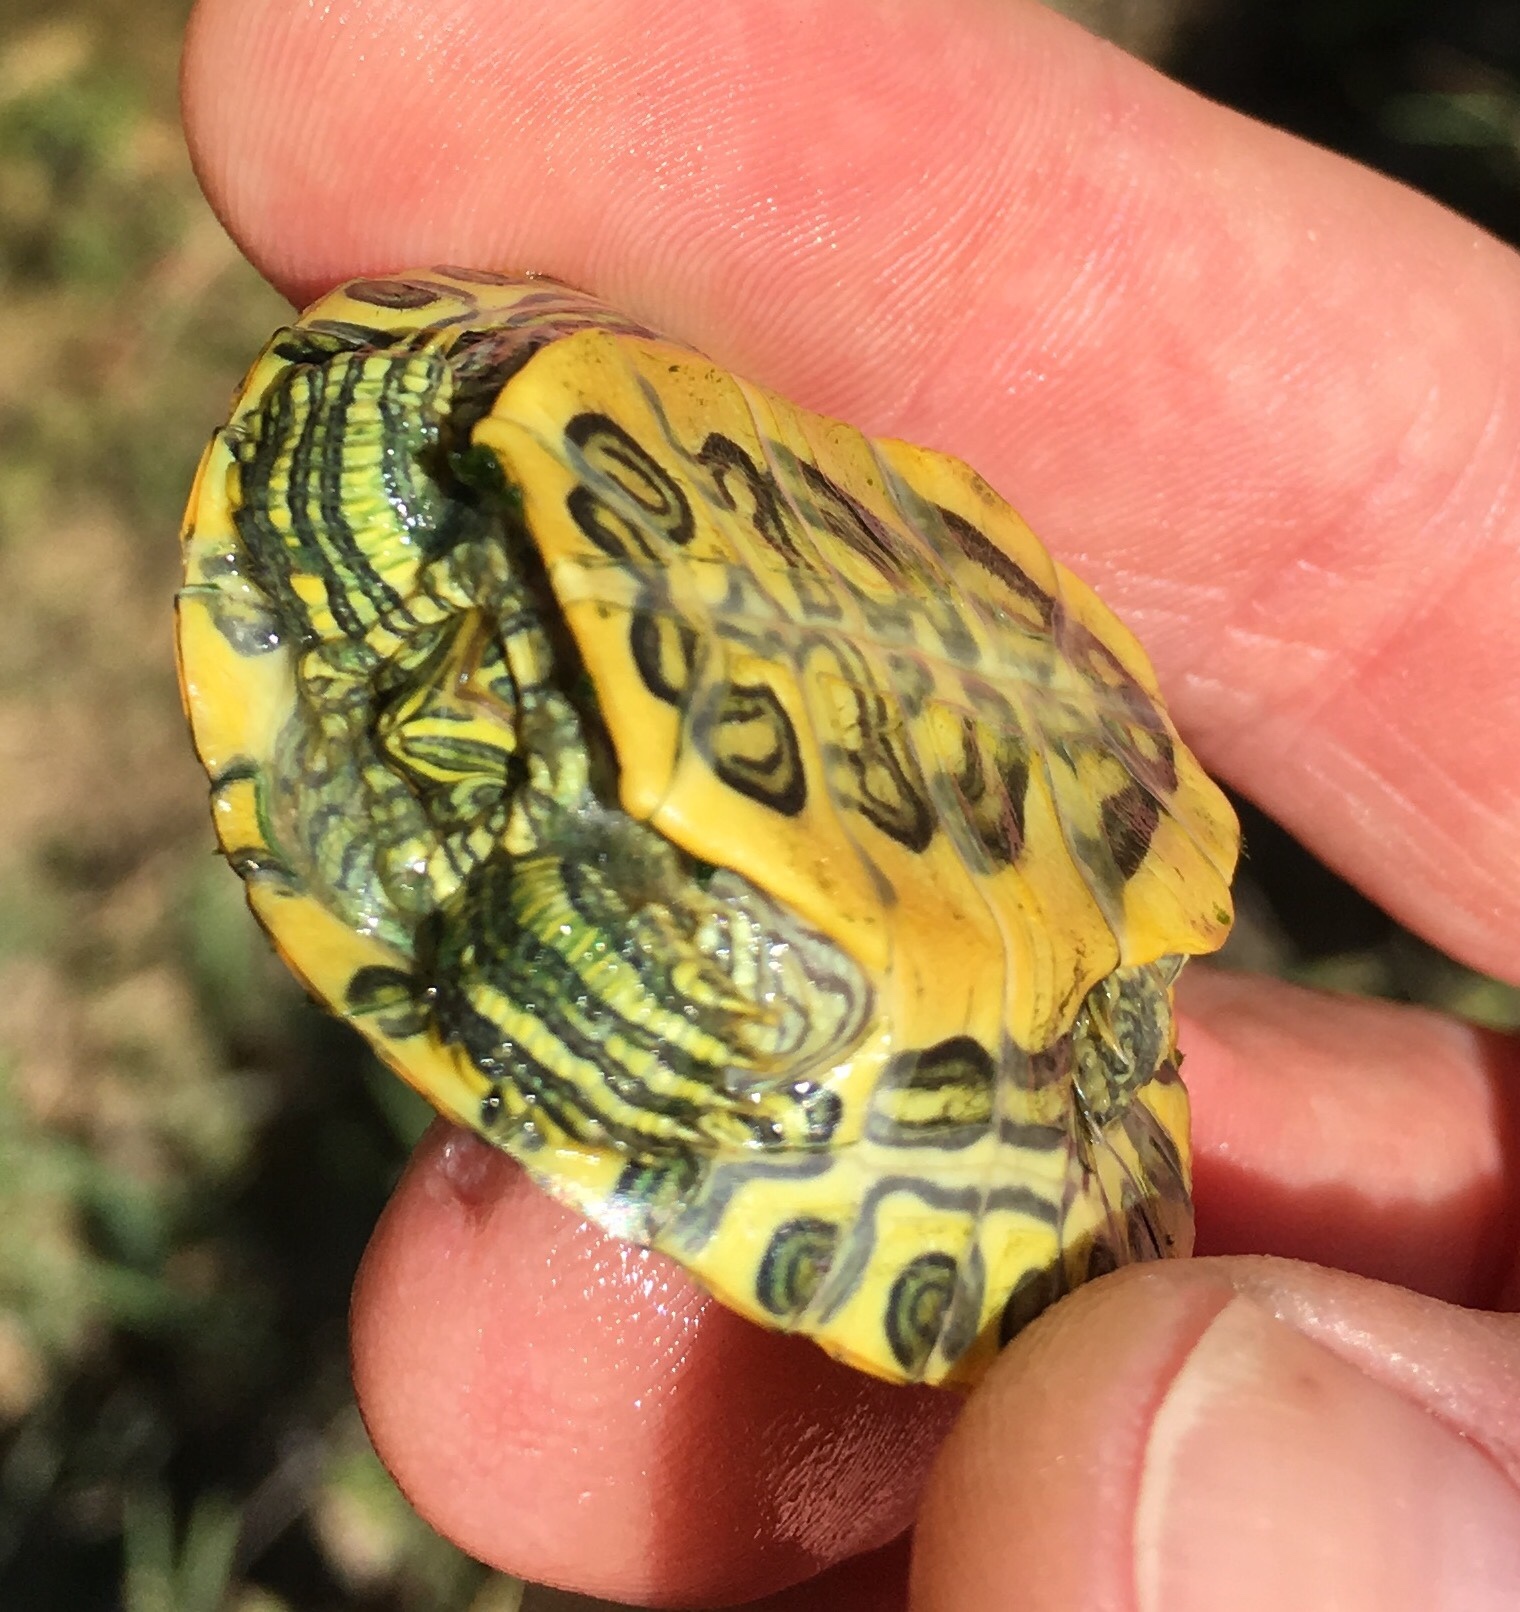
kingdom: Animalia
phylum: Chordata
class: Testudines
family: Emydidae
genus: Trachemys
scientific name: Trachemys scripta
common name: Slider
